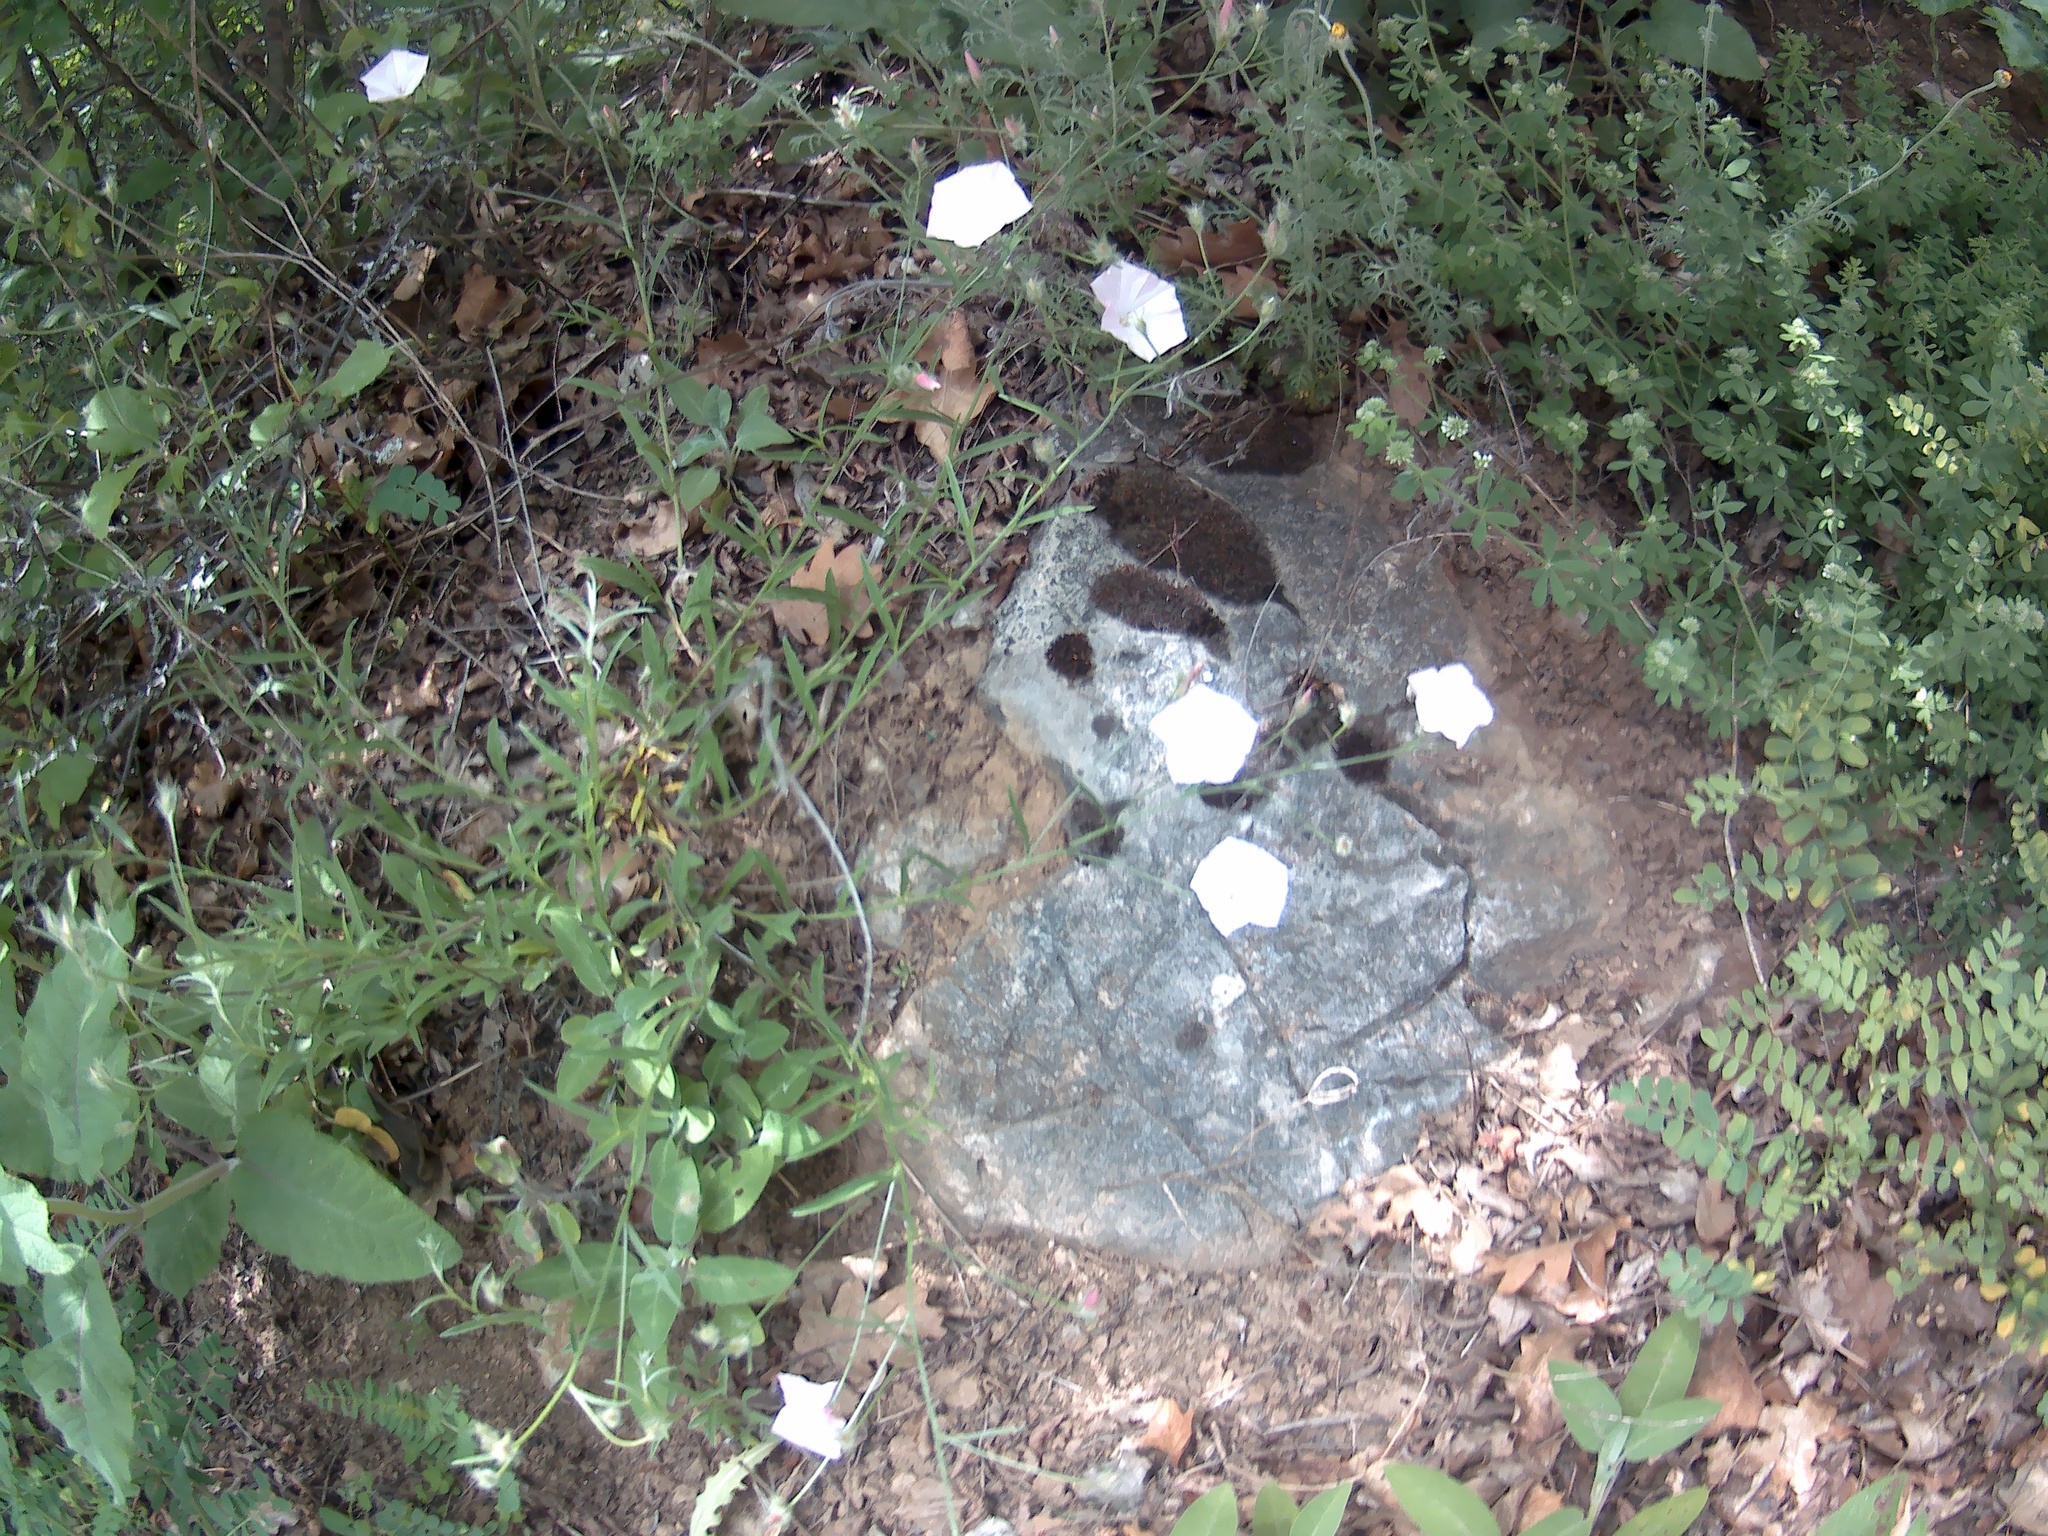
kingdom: Plantae
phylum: Tracheophyta
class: Magnoliopsida
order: Solanales
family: Convolvulaceae
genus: Convolvulus
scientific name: Convolvulus cantabrica
